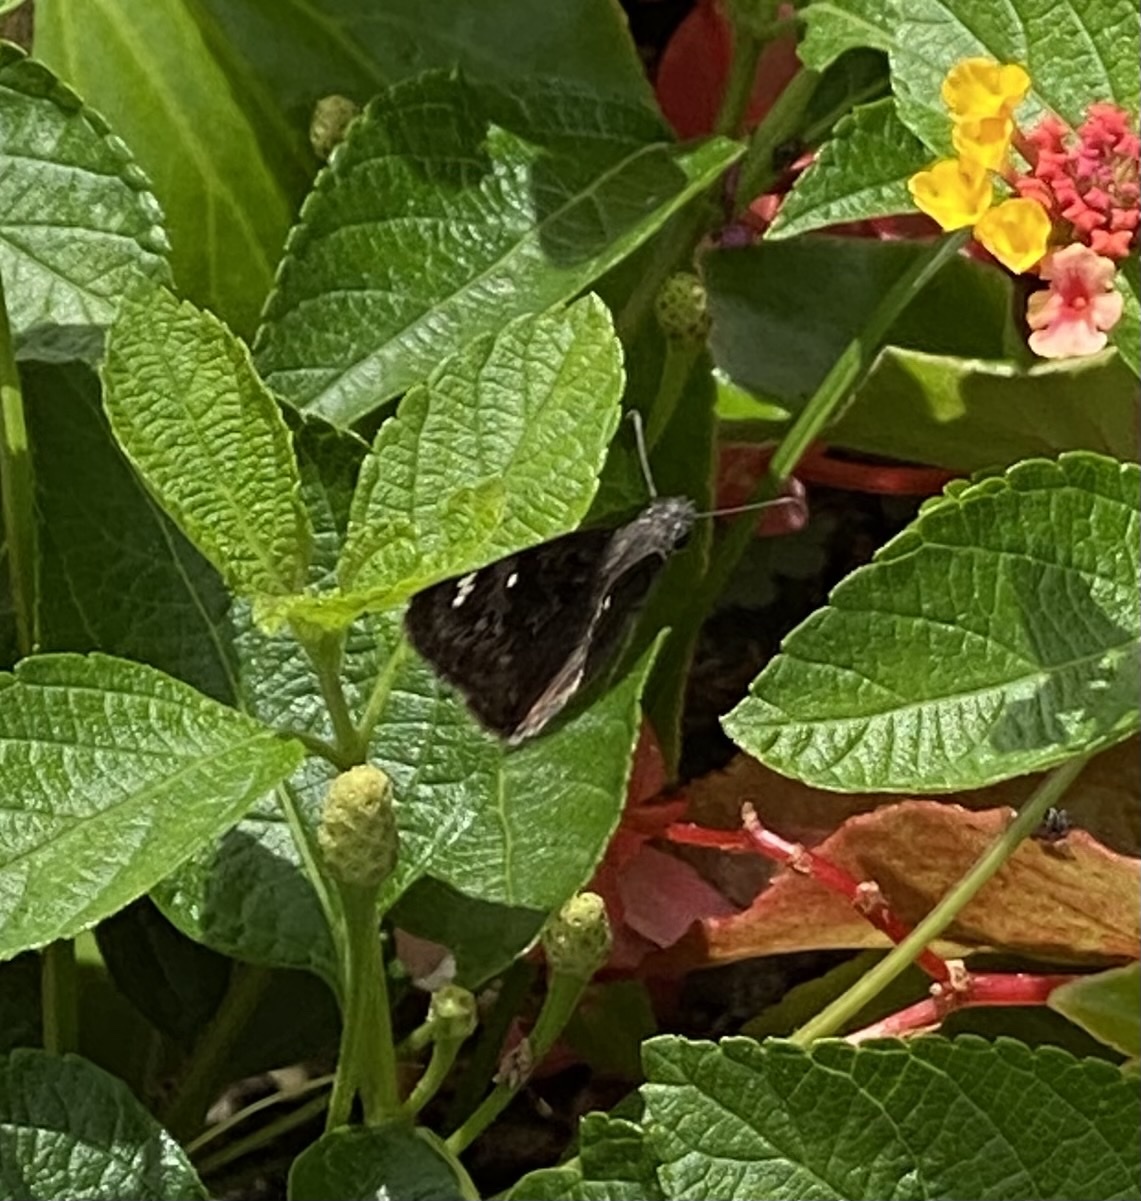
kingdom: Animalia
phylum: Arthropoda
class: Insecta
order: Lepidoptera
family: Hesperiidae
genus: Erynnis
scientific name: Erynnis horatius
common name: Horace's duskywing
